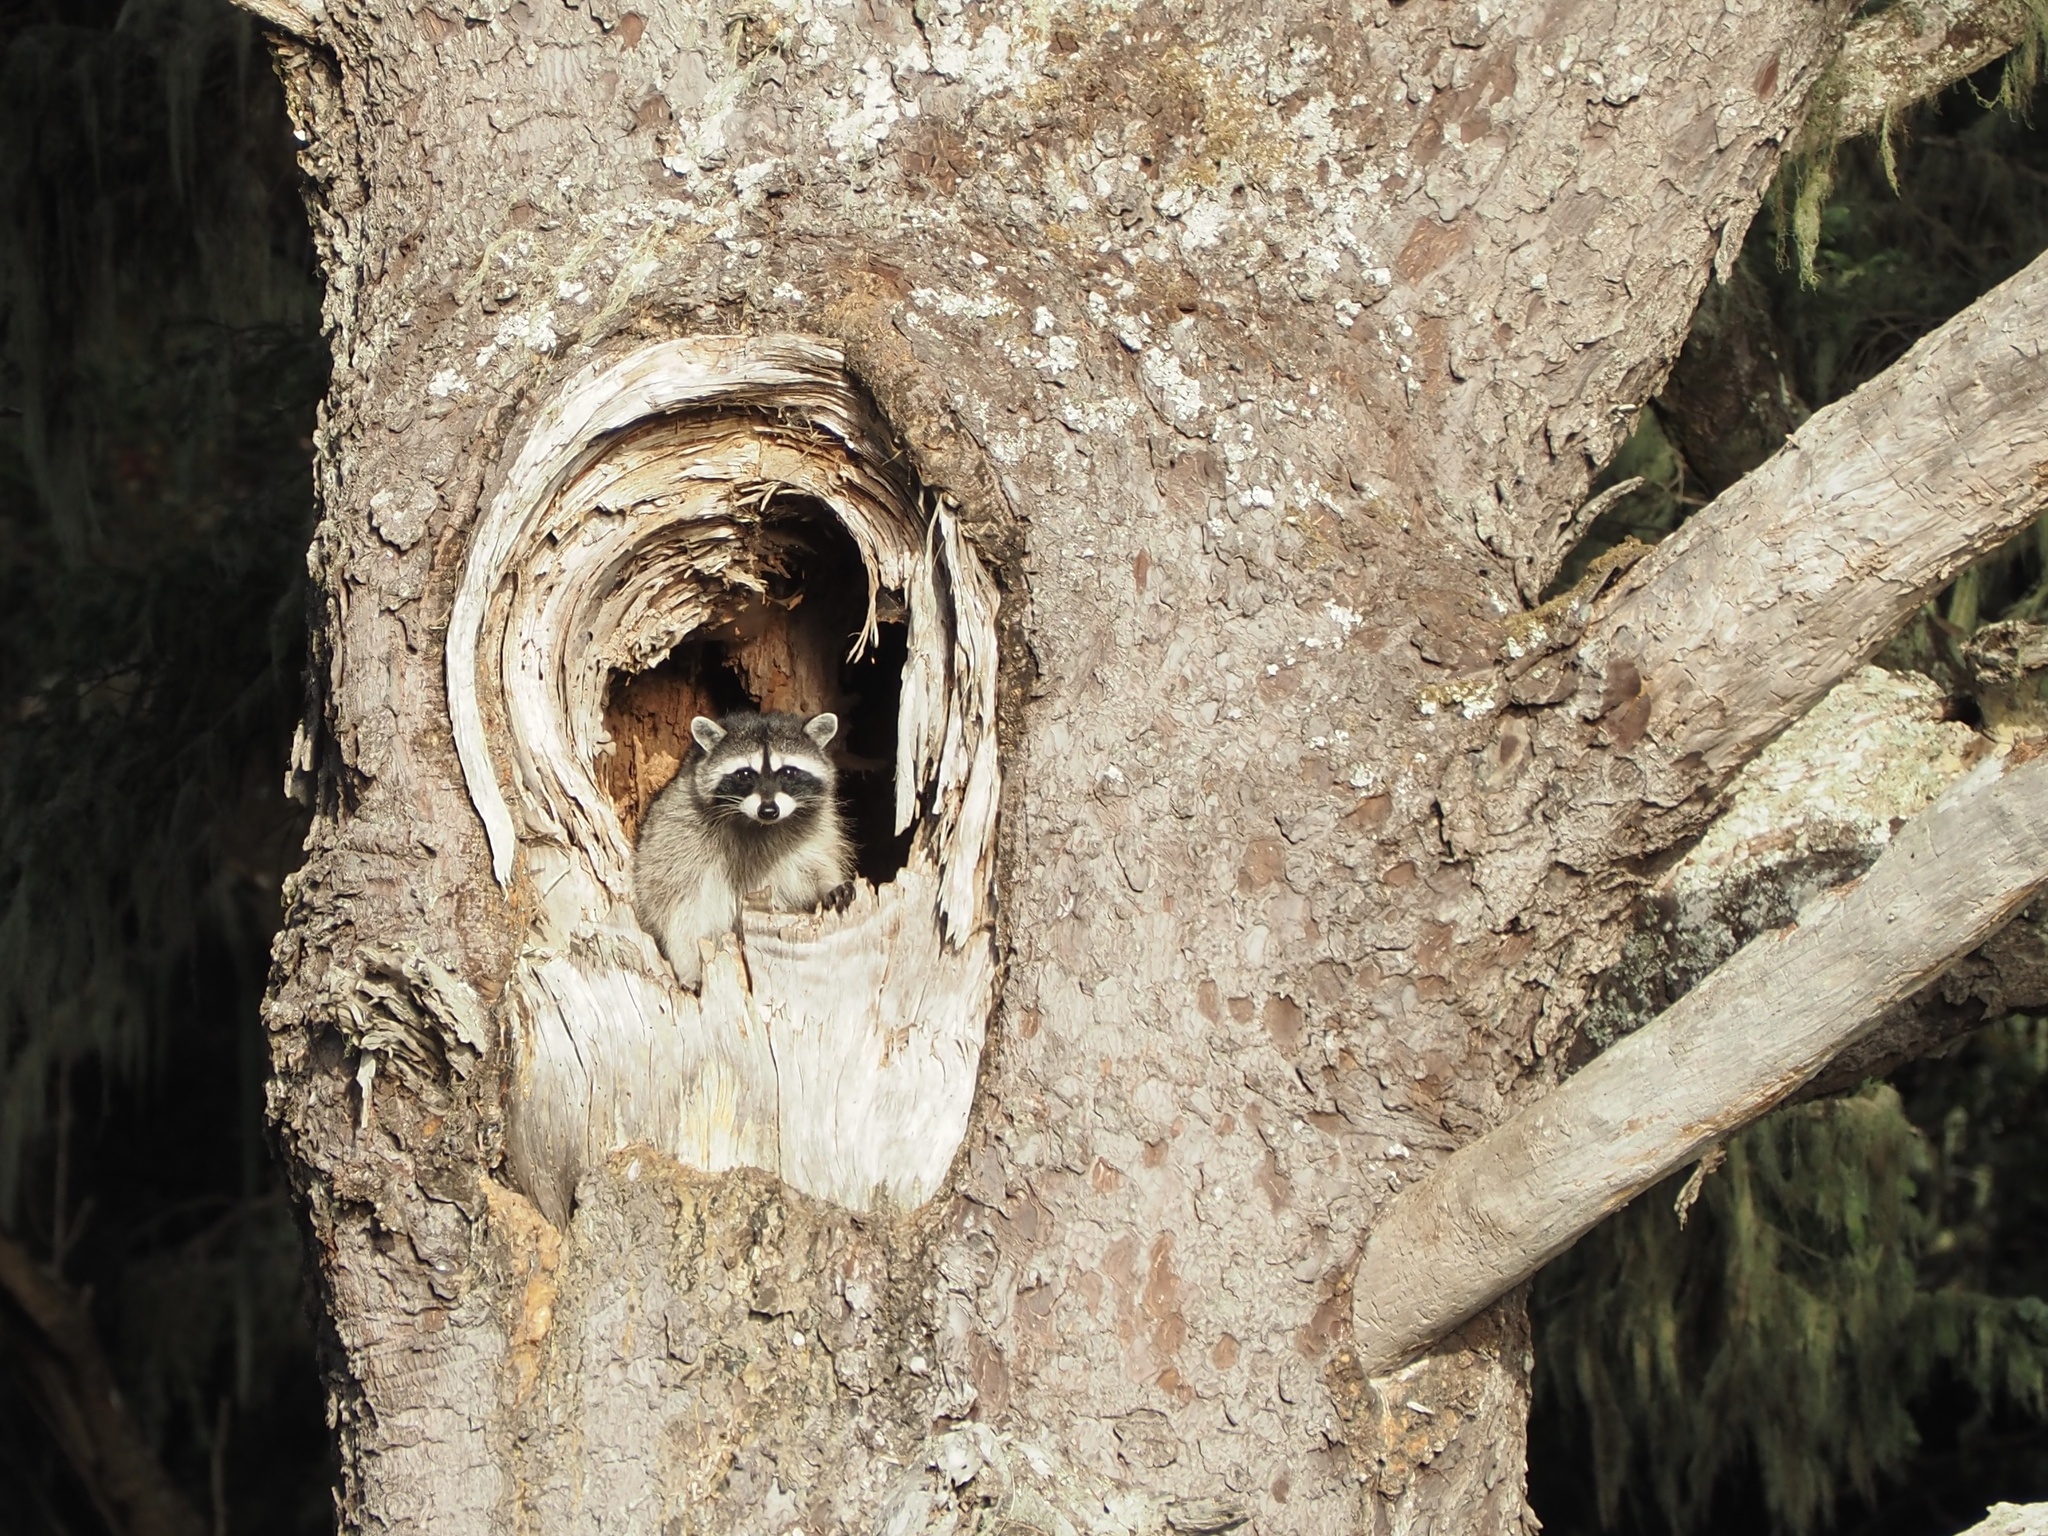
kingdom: Animalia
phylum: Chordata
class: Mammalia
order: Carnivora
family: Procyonidae
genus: Procyon
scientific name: Procyon lotor
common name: Raccoon
